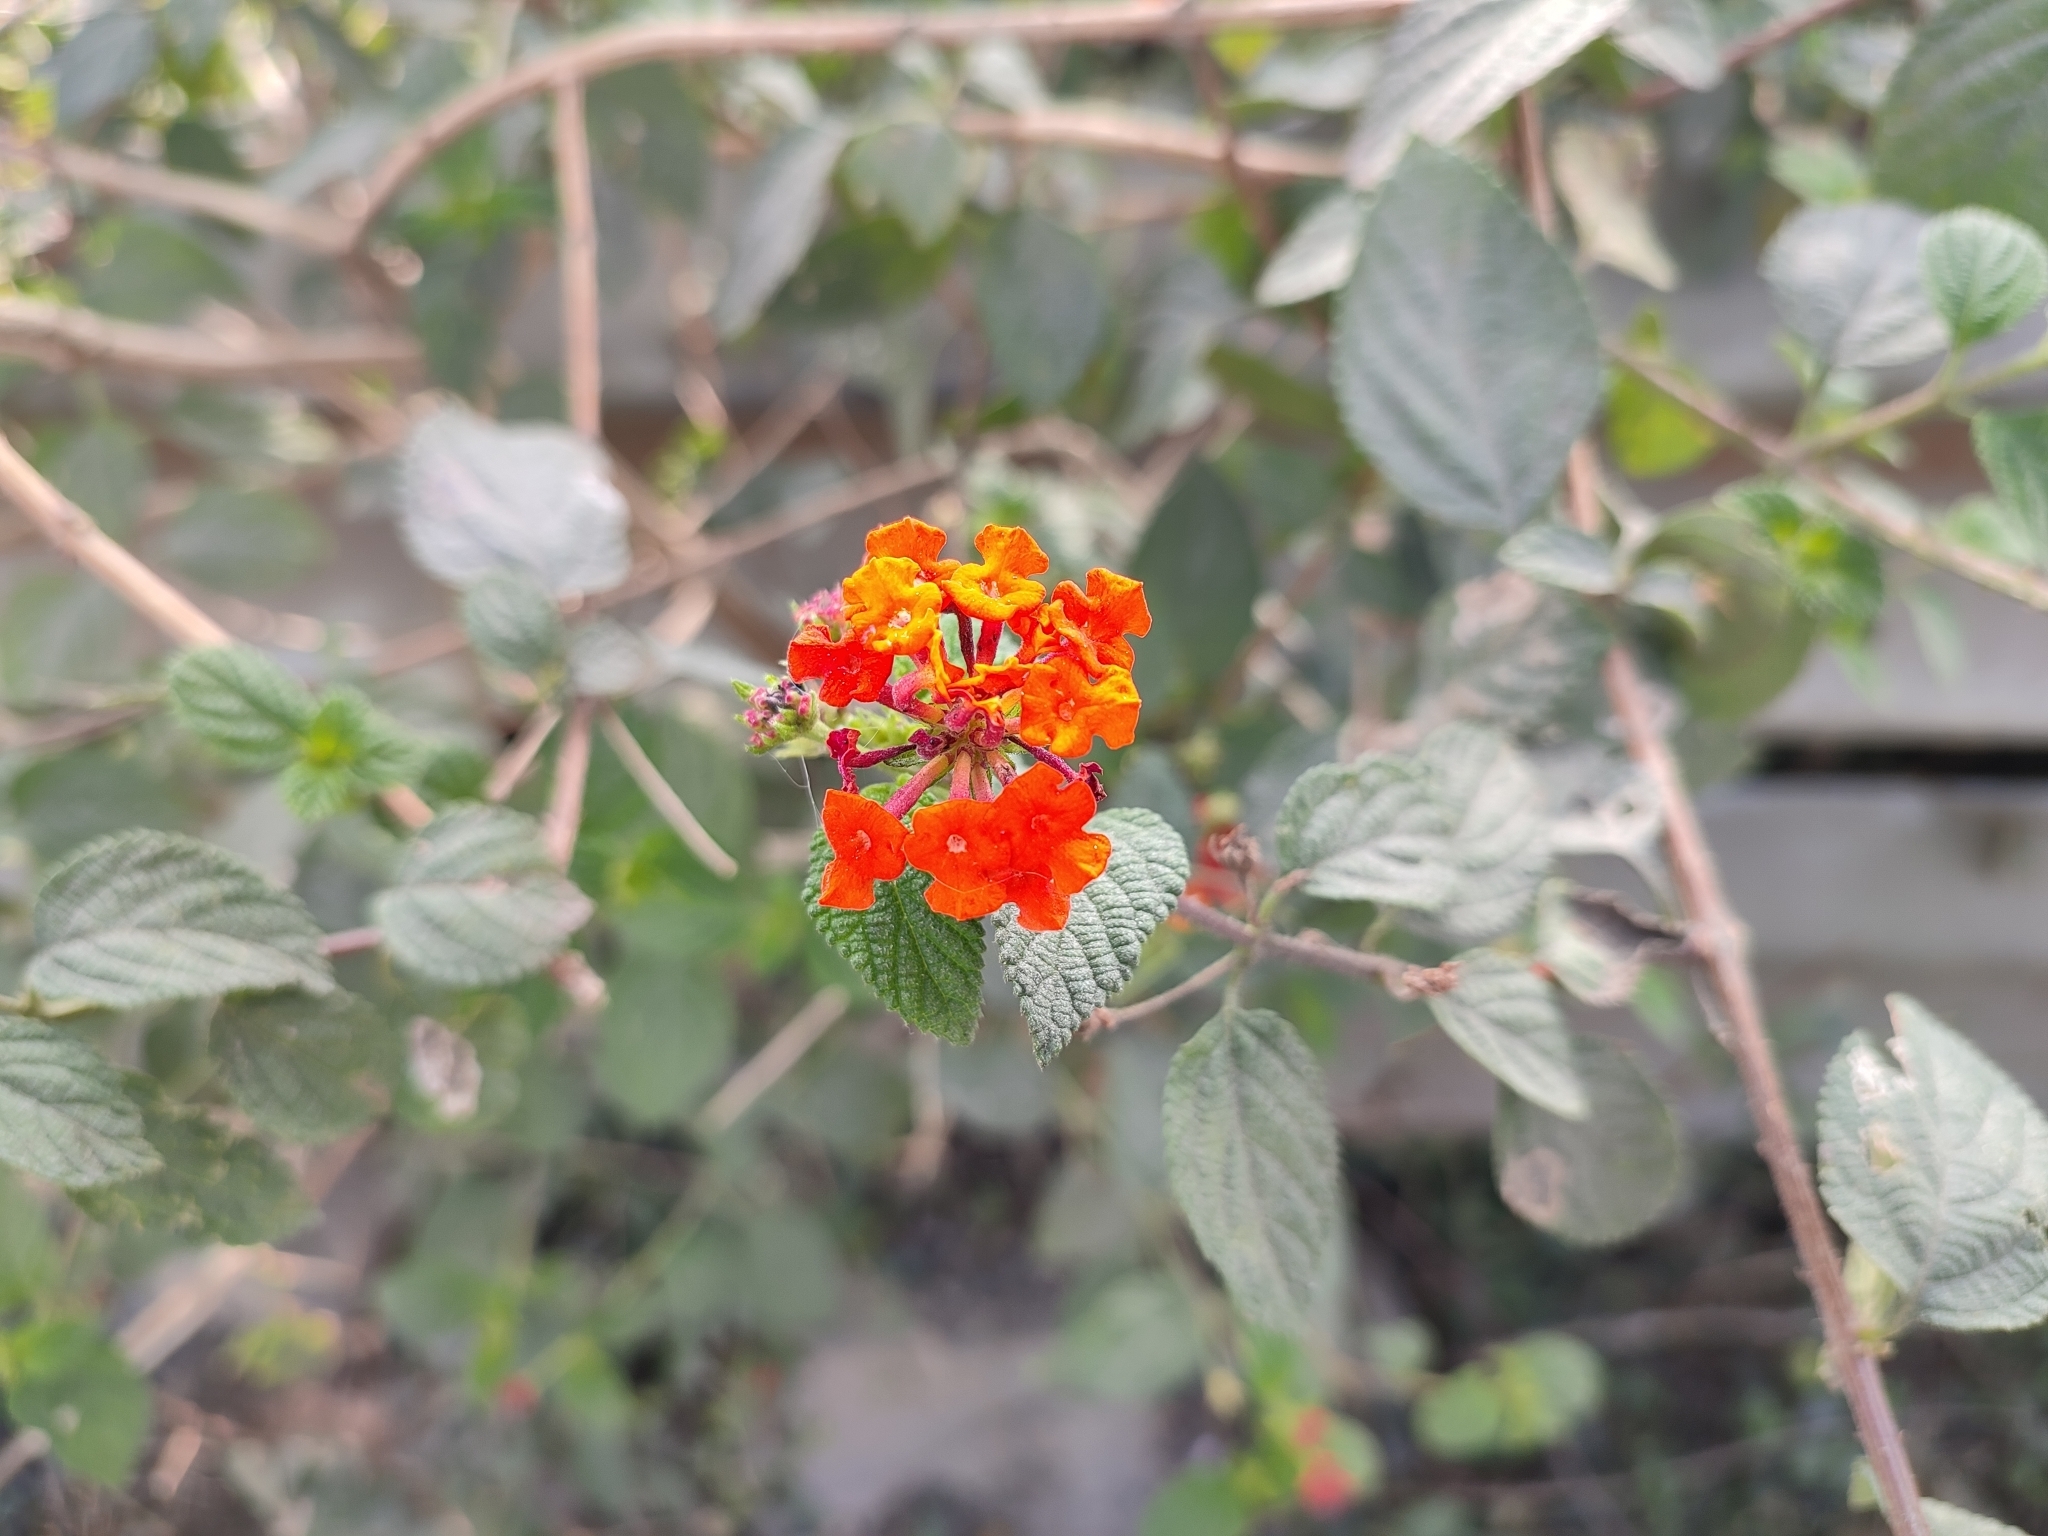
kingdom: Plantae
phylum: Tracheophyta
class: Magnoliopsida
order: Lamiales
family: Verbenaceae
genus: Lantana
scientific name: Lantana camara
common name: Lantana
